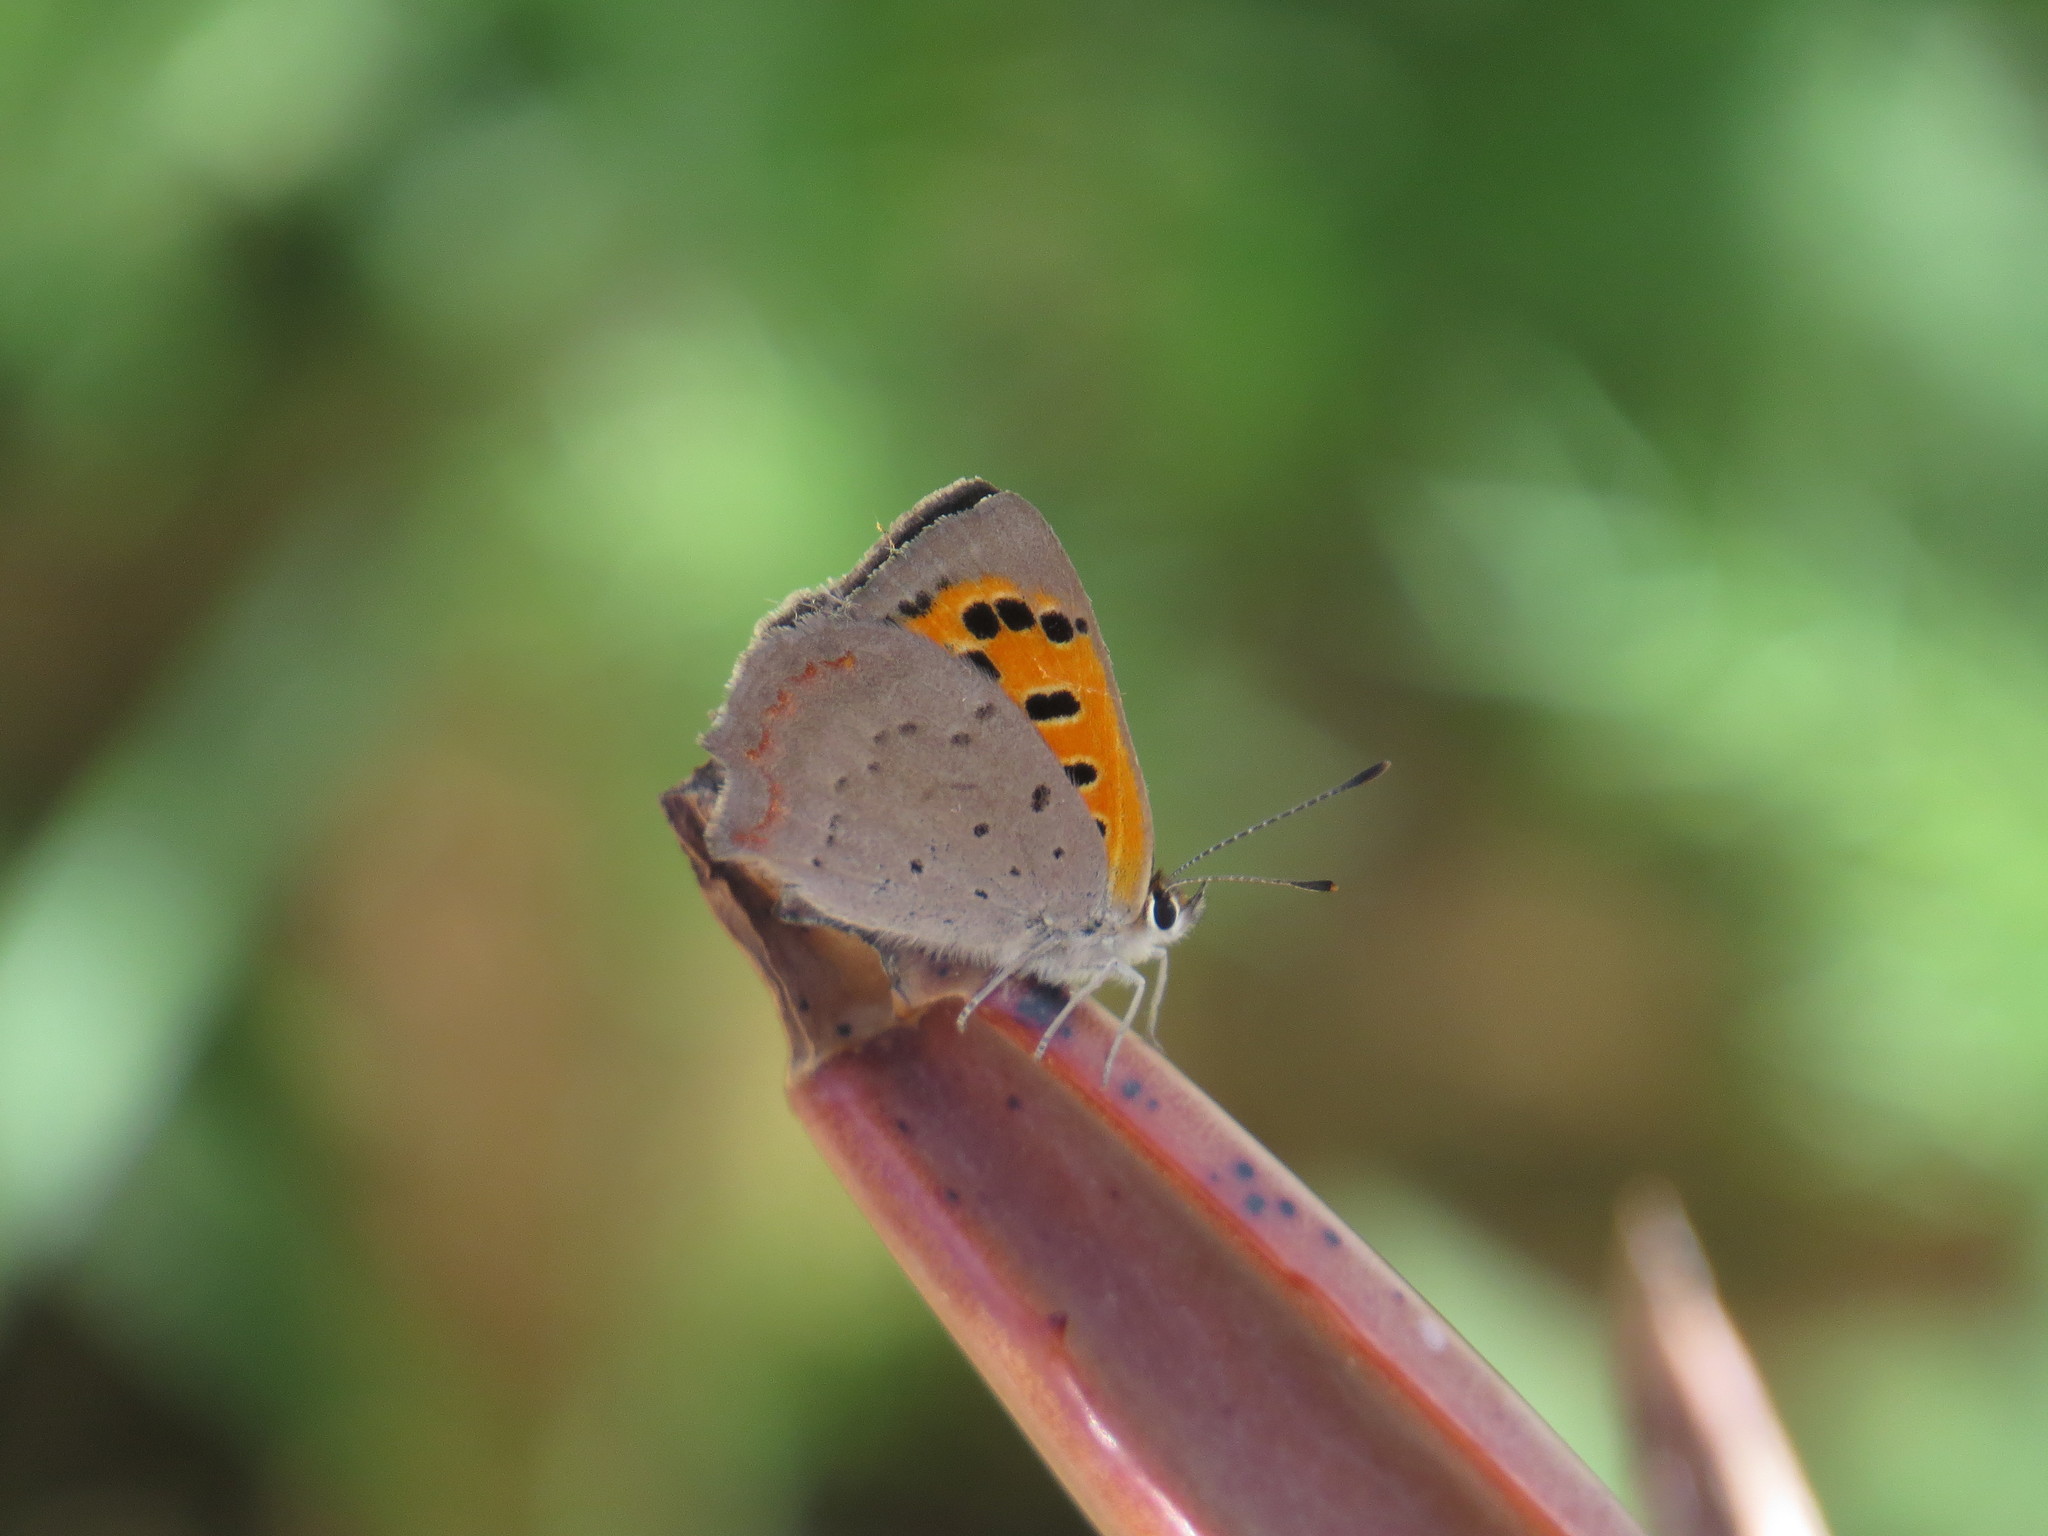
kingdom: Animalia
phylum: Arthropoda
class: Insecta
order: Lepidoptera
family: Lycaenidae
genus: Lycaena
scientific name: Lycaena phlaeas
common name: Small copper
